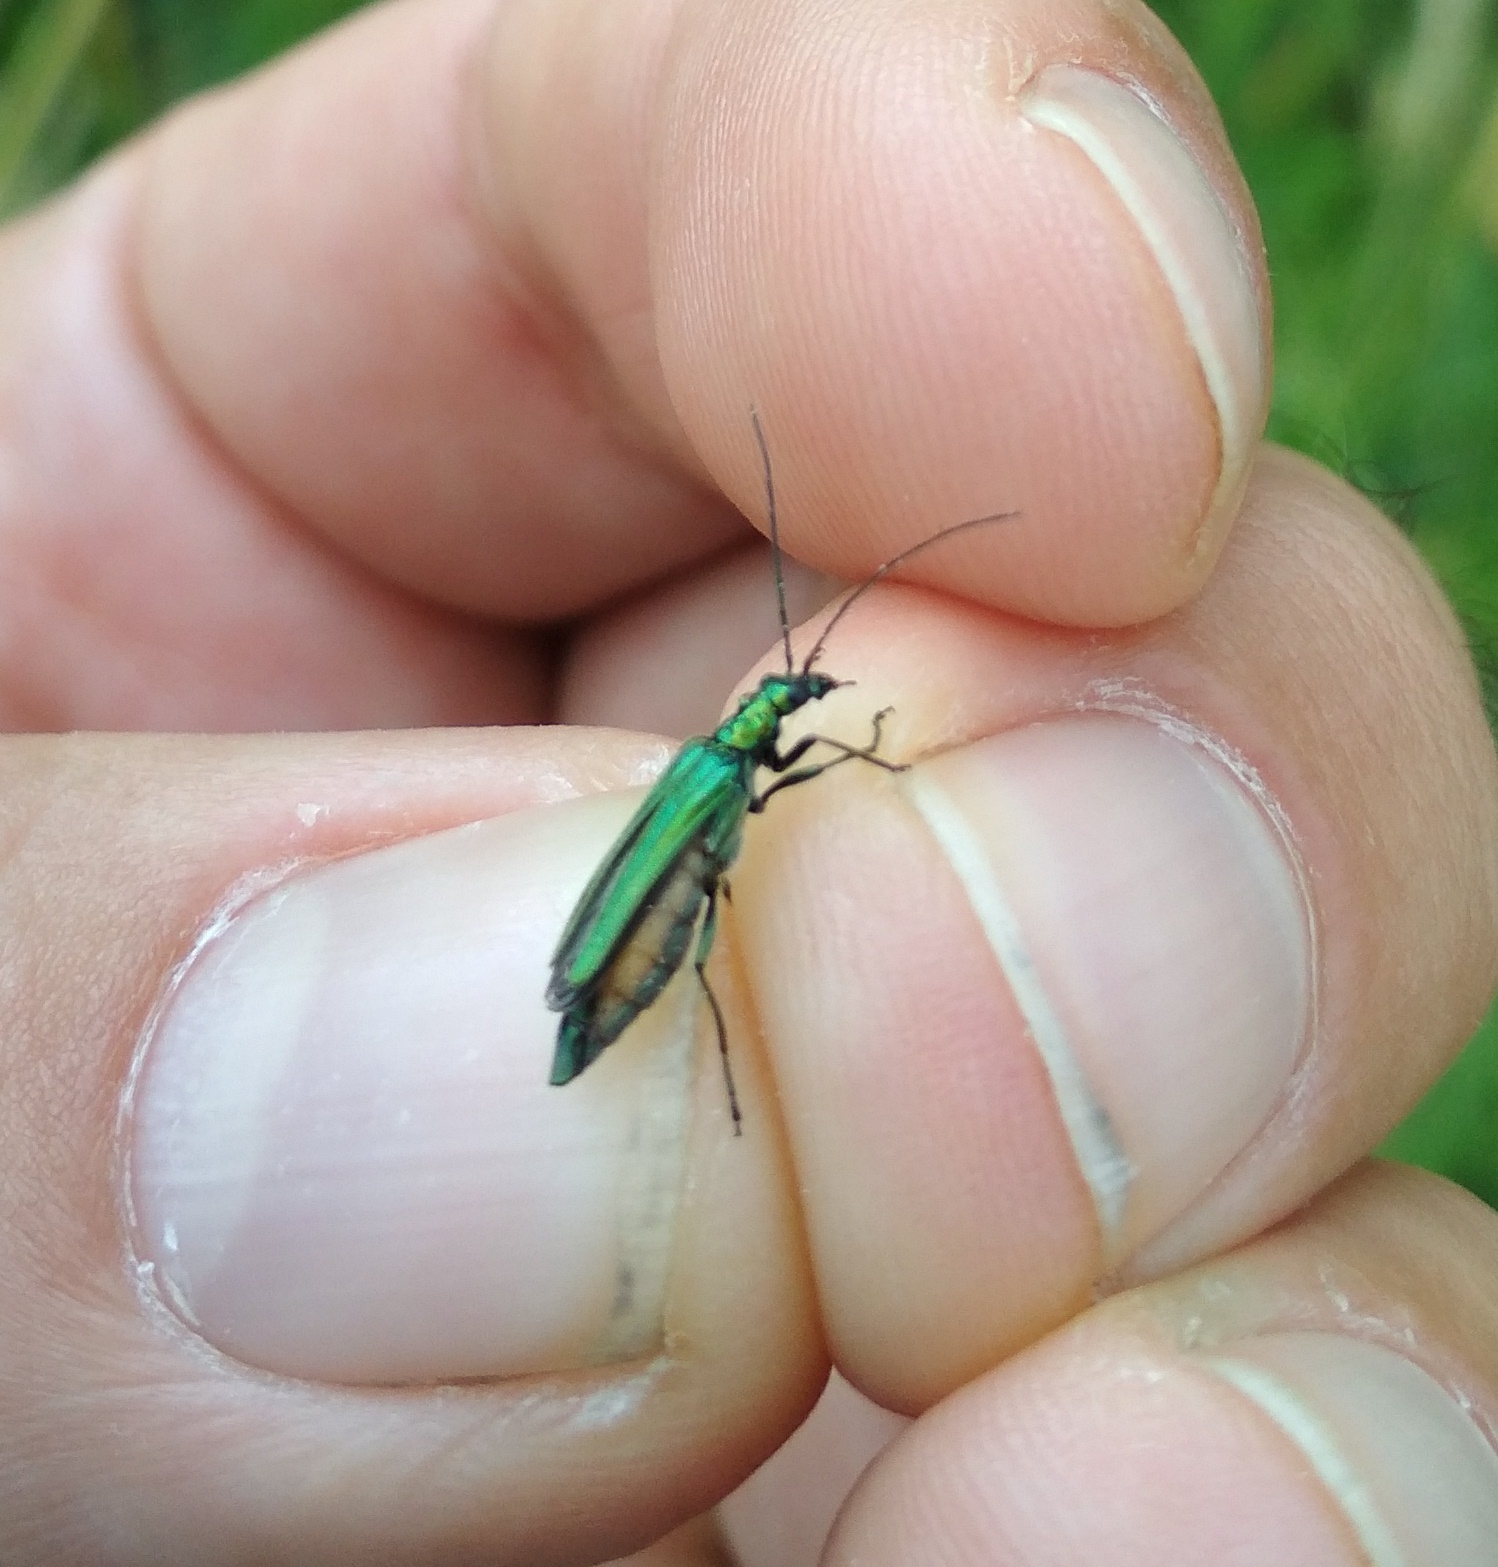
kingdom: Animalia
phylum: Arthropoda
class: Insecta
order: Coleoptera
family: Oedemeridae
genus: Oedemera
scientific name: Oedemera nobilis
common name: Swollen-thighed beetle
